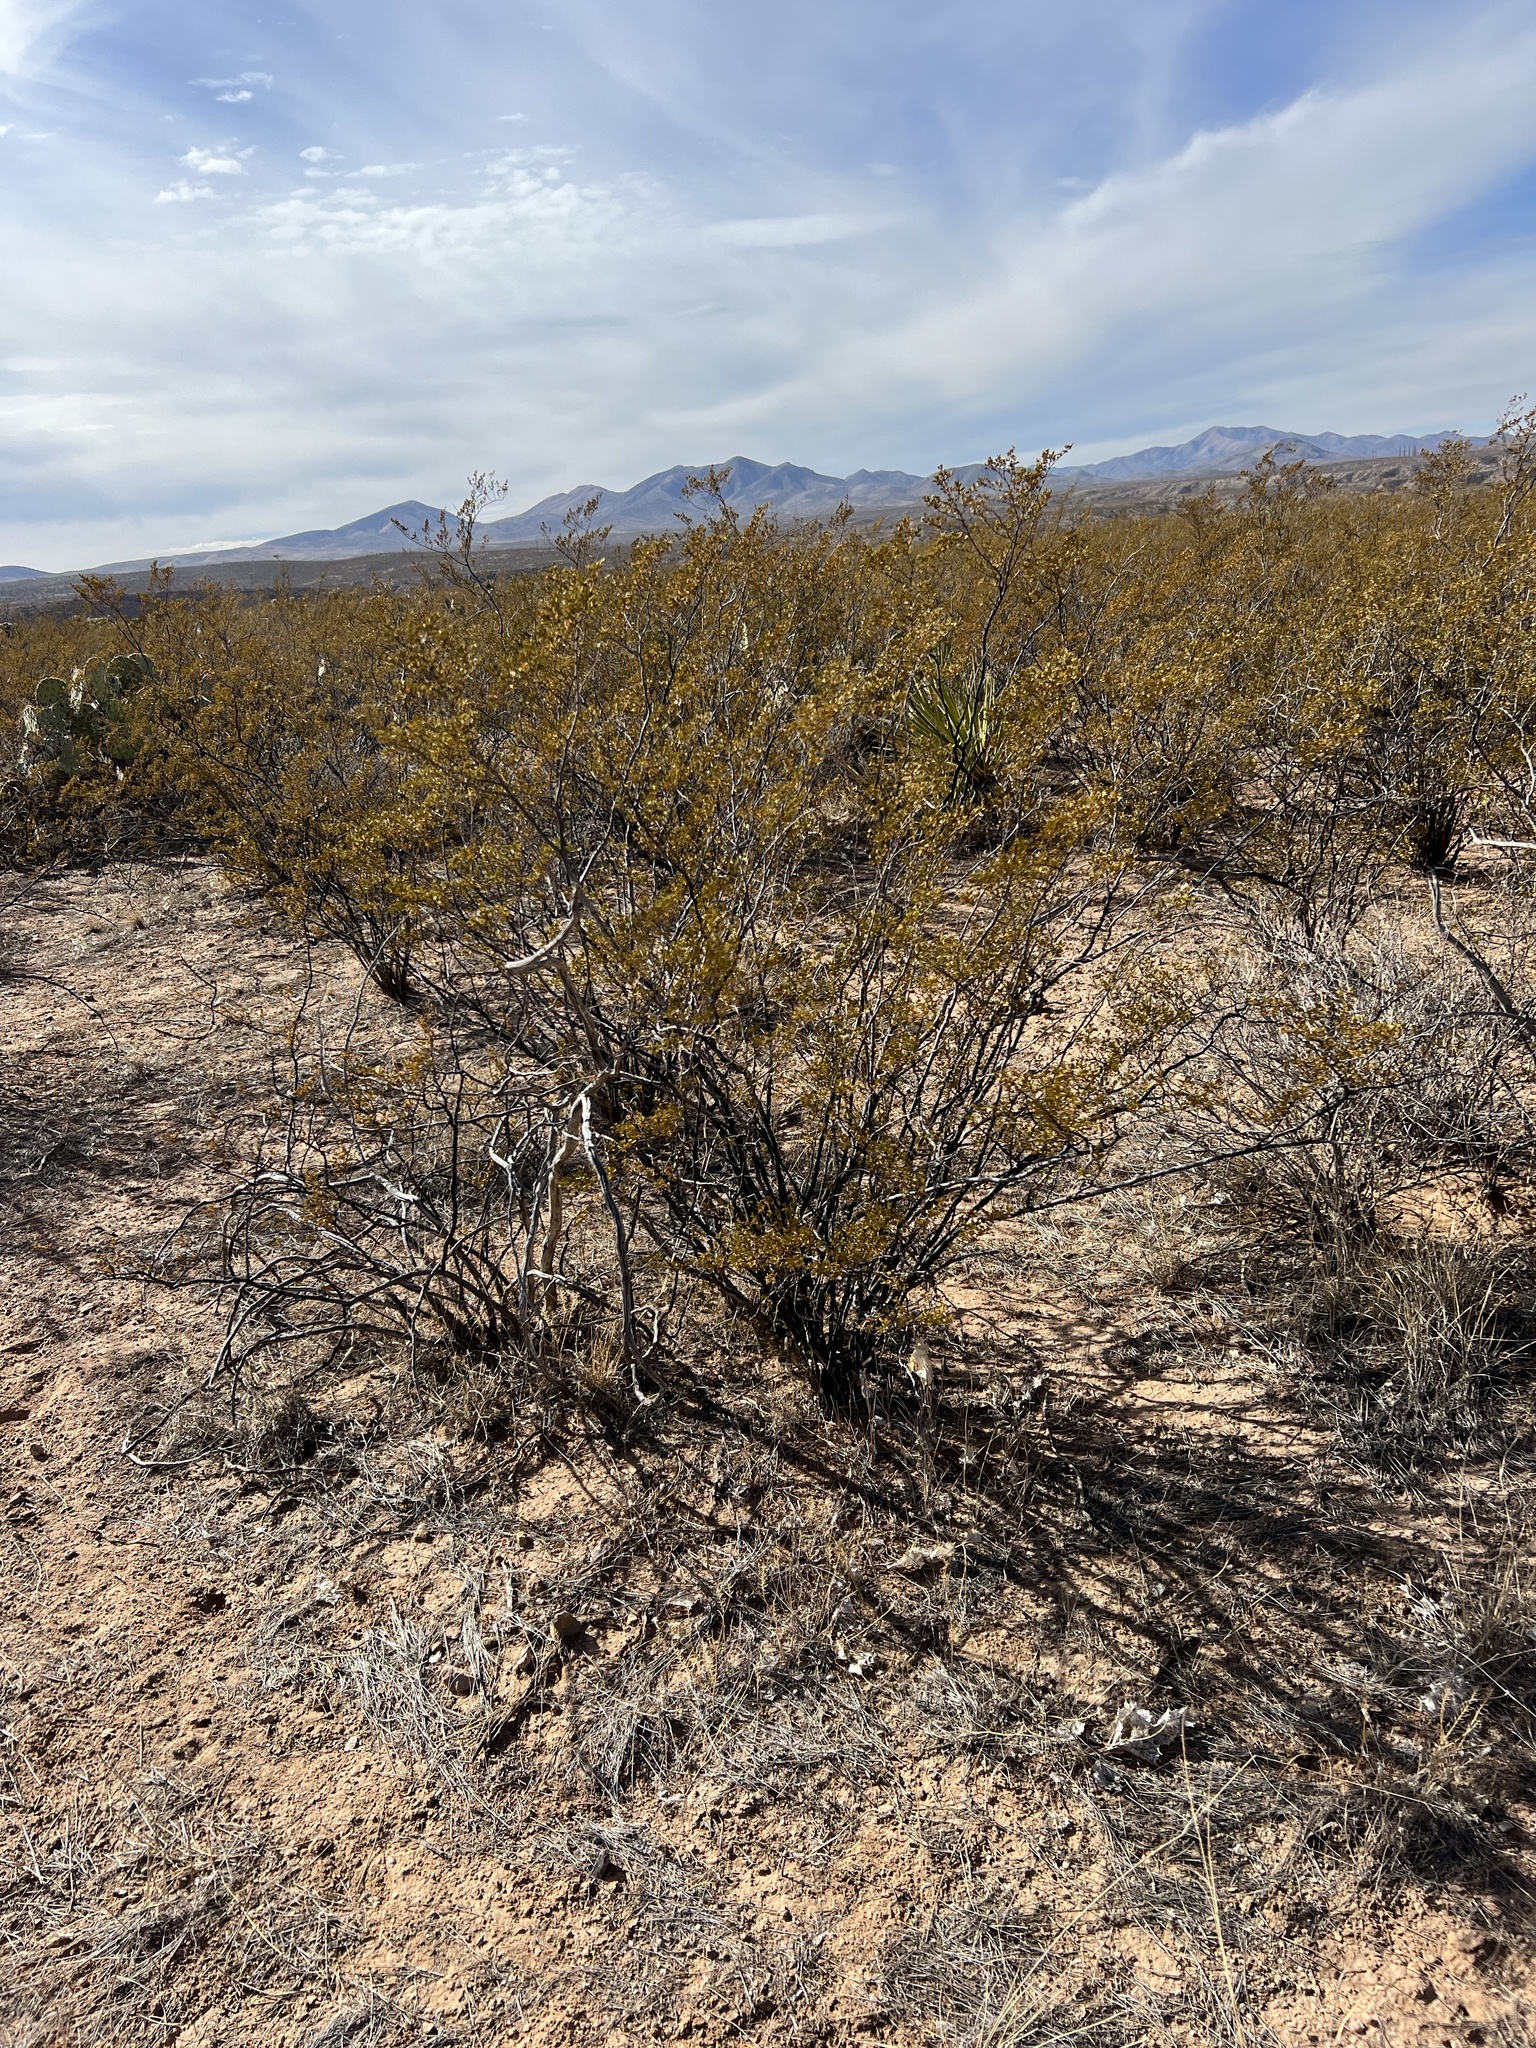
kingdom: Plantae
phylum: Tracheophyta
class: Magnoliopsida
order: Zygophyllales
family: Zygophyllaceae
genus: Larrea
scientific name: Larrea tridentata
